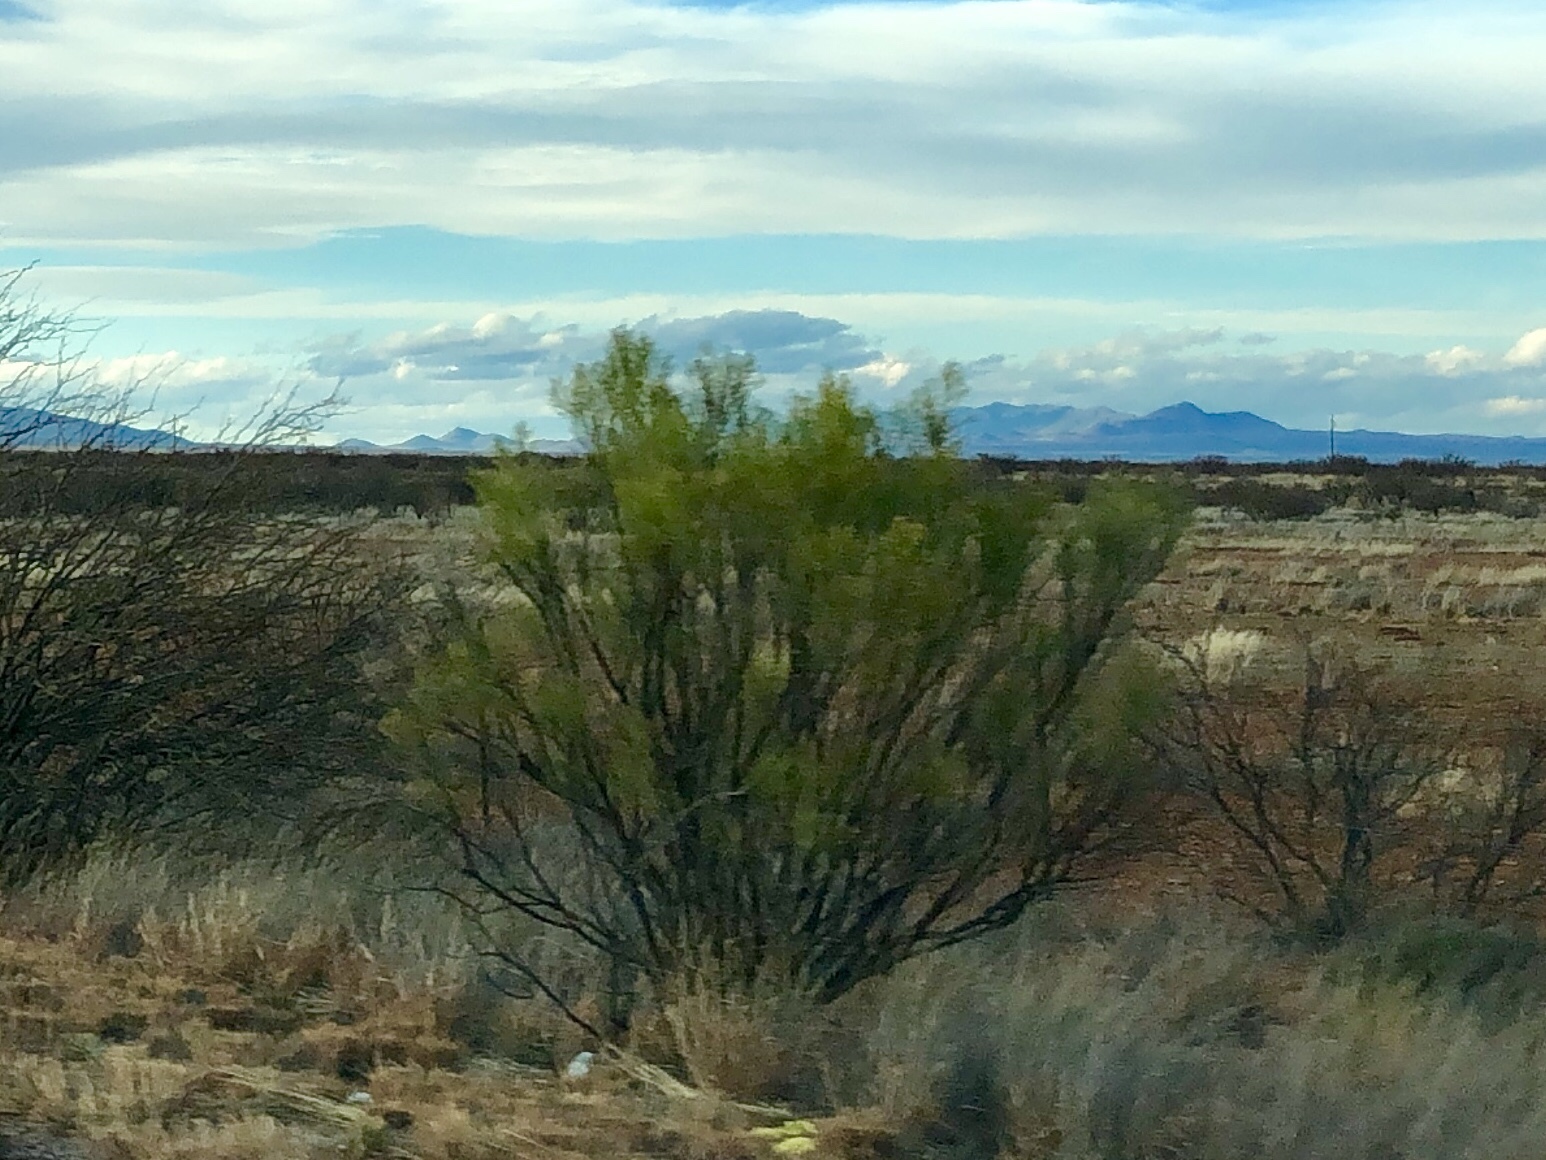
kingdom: Plantae
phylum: Tracheophyta
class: Magnoliopsida
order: Asterales
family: Asteraceae
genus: Baccharis
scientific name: Baccharis sarothroides
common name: Desert-broom
